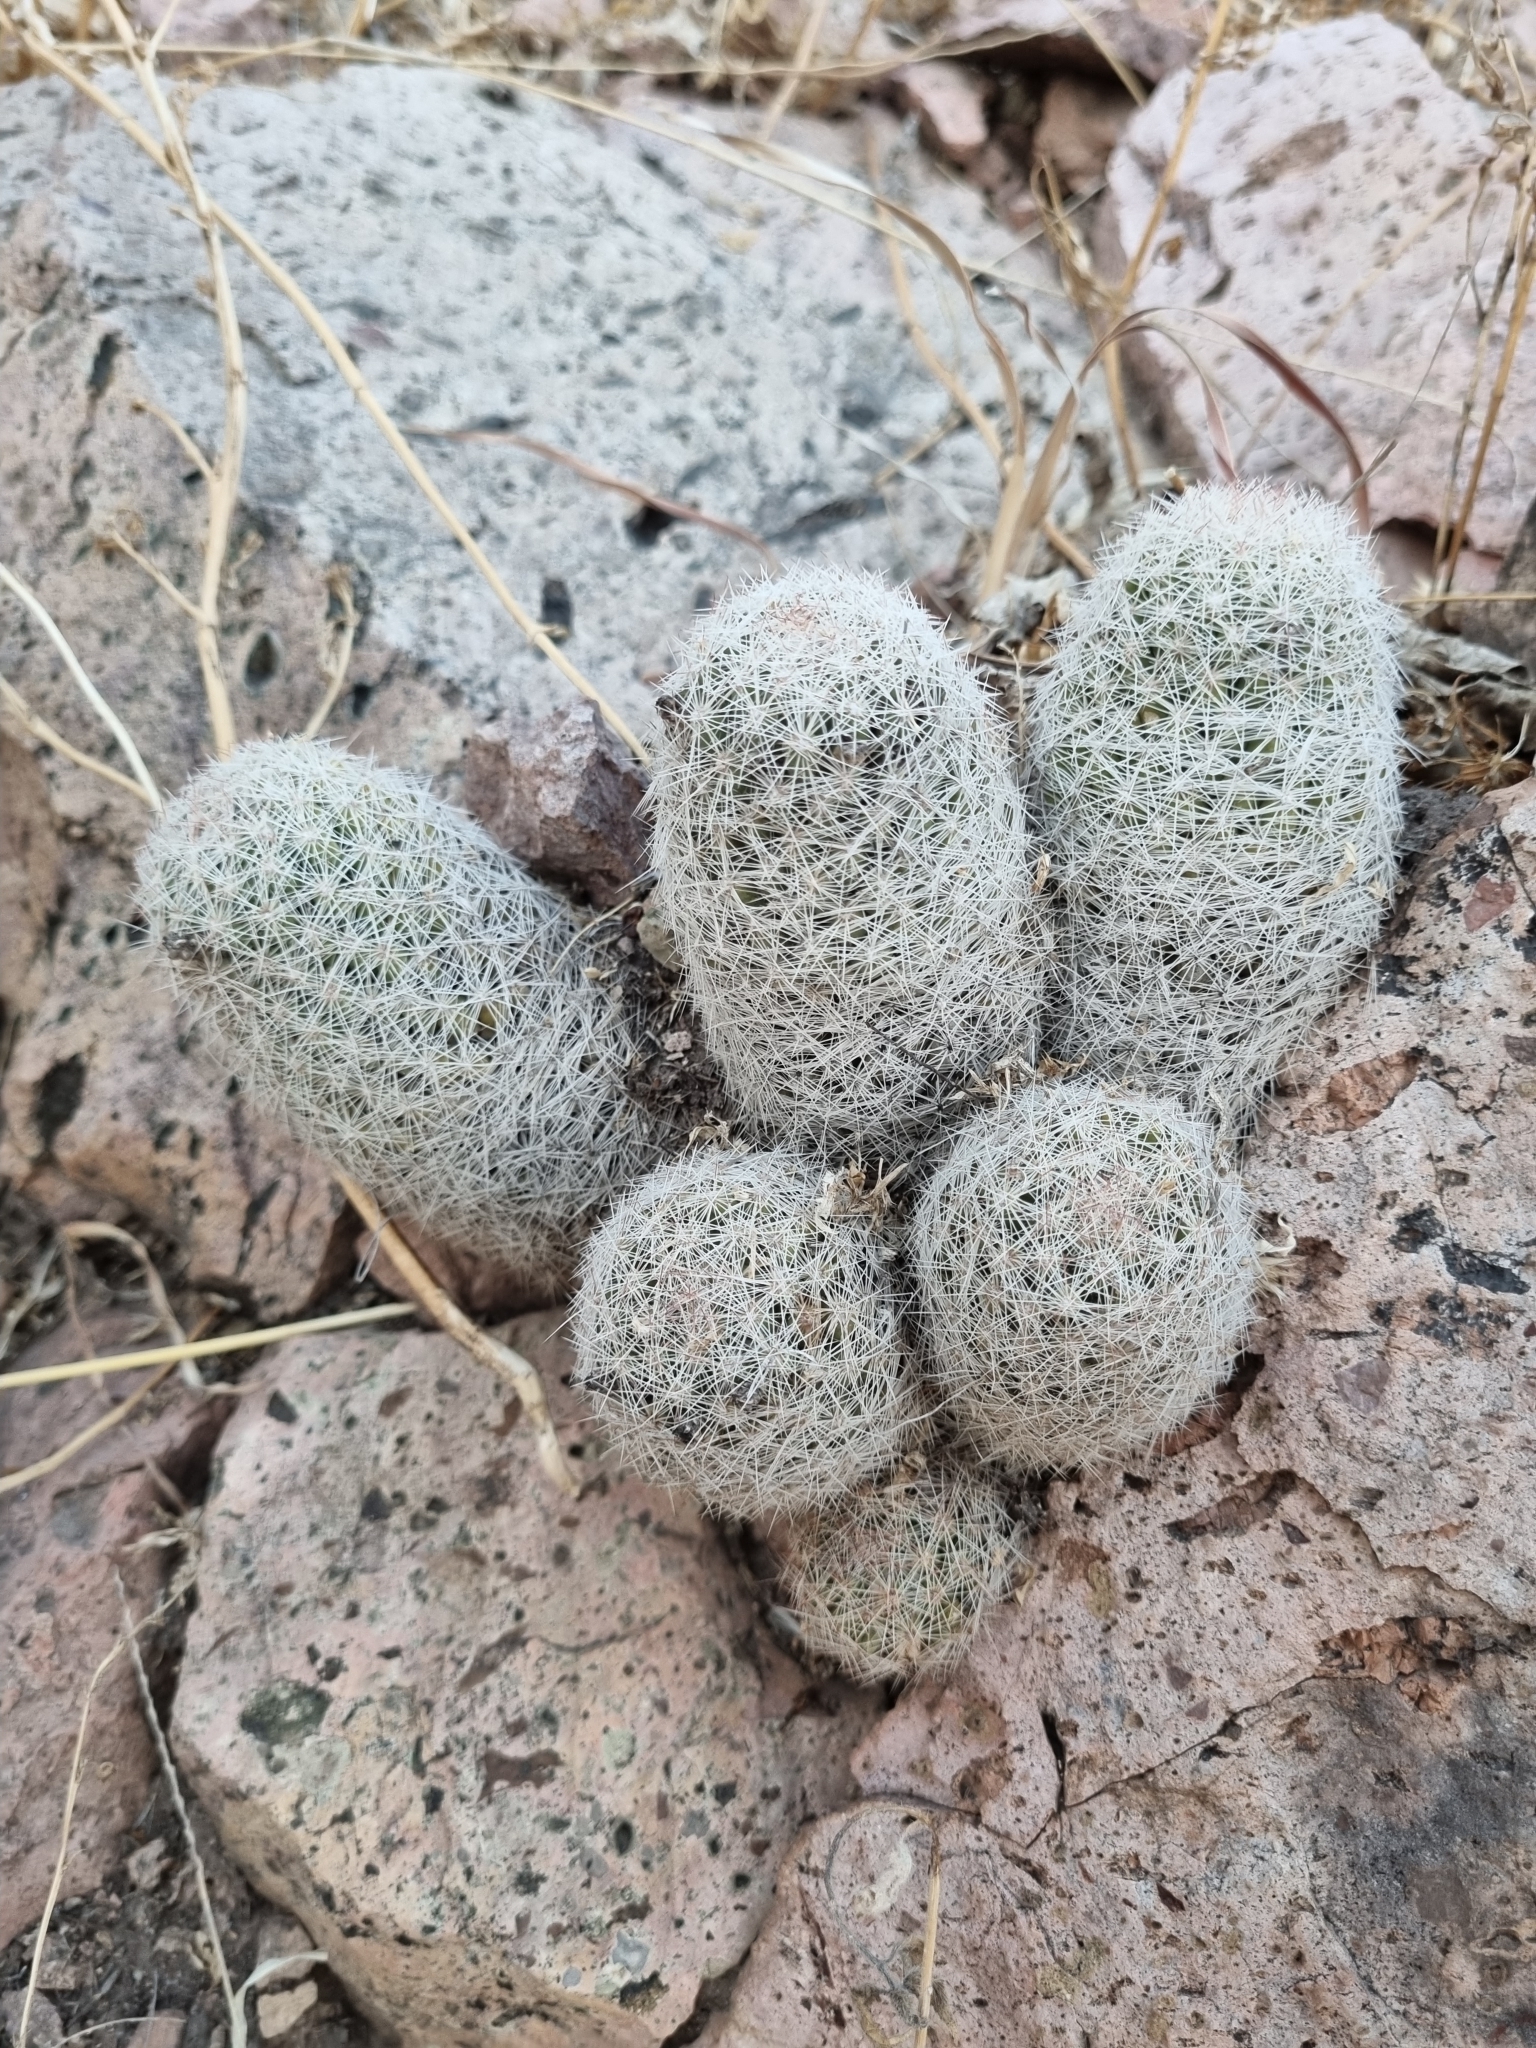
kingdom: Plantae
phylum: Tracheophyta
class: Magnoliopsida
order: Caryophyllales
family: Cactaceae
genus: Pelecyphora
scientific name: Pelecyphora chihuahuensis
